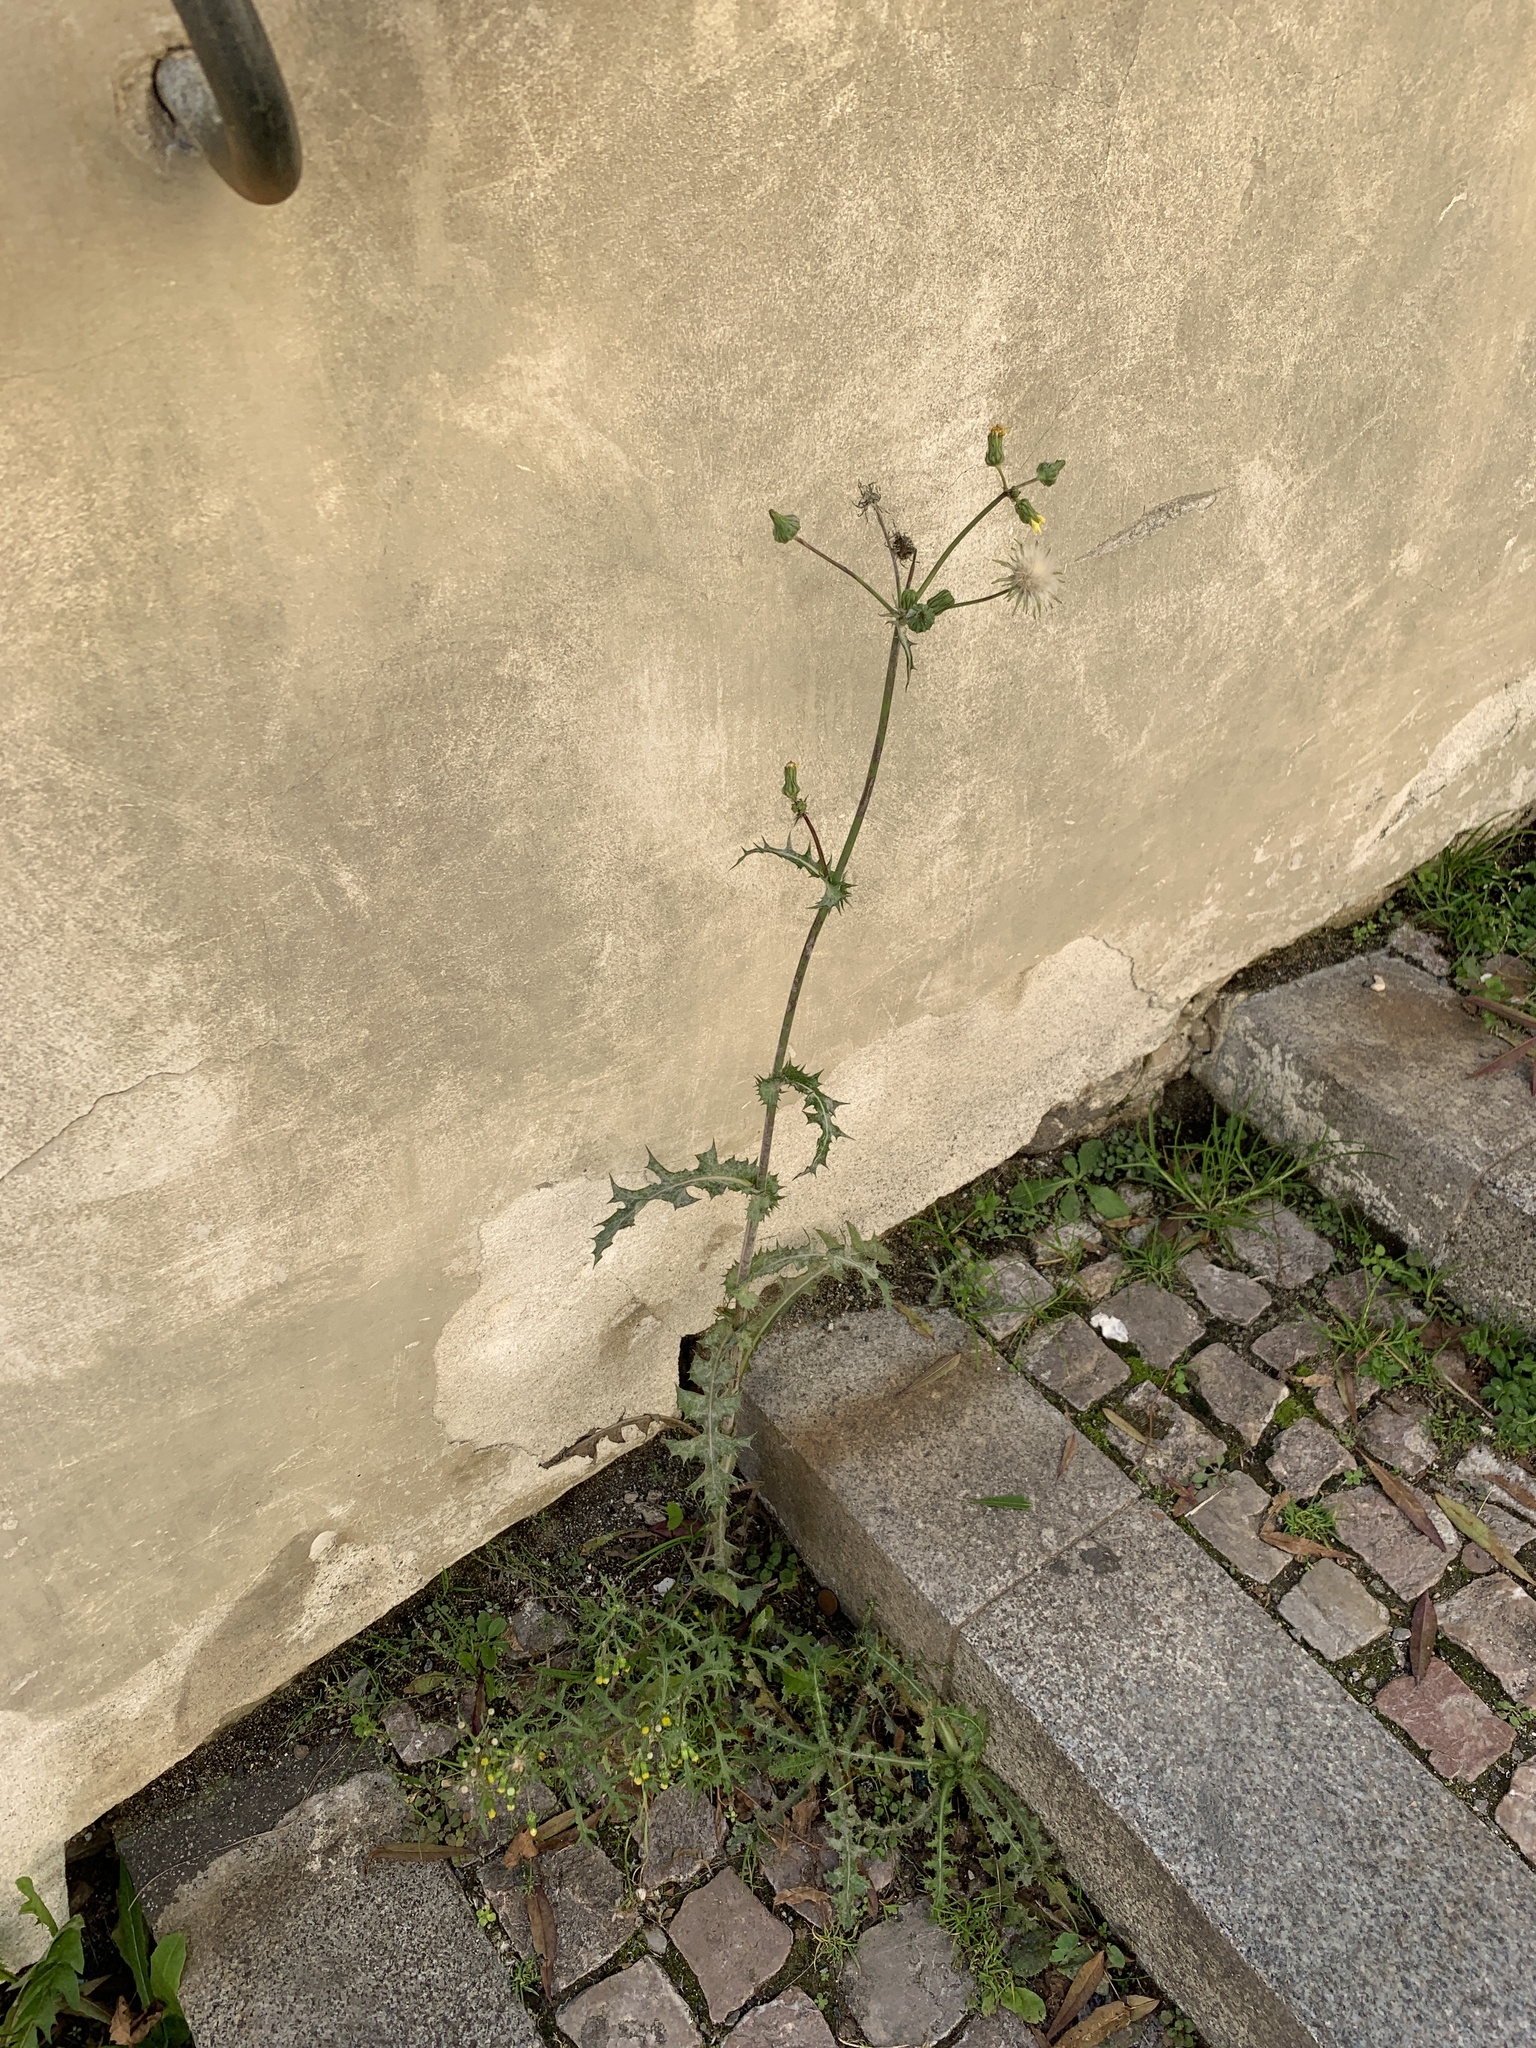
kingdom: Plantae
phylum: Tracheophyta
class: Magnoliopsida
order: Asterales
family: Asteraceae
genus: Sonchus
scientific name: Sonchus asper
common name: Prickly sow-thistle
